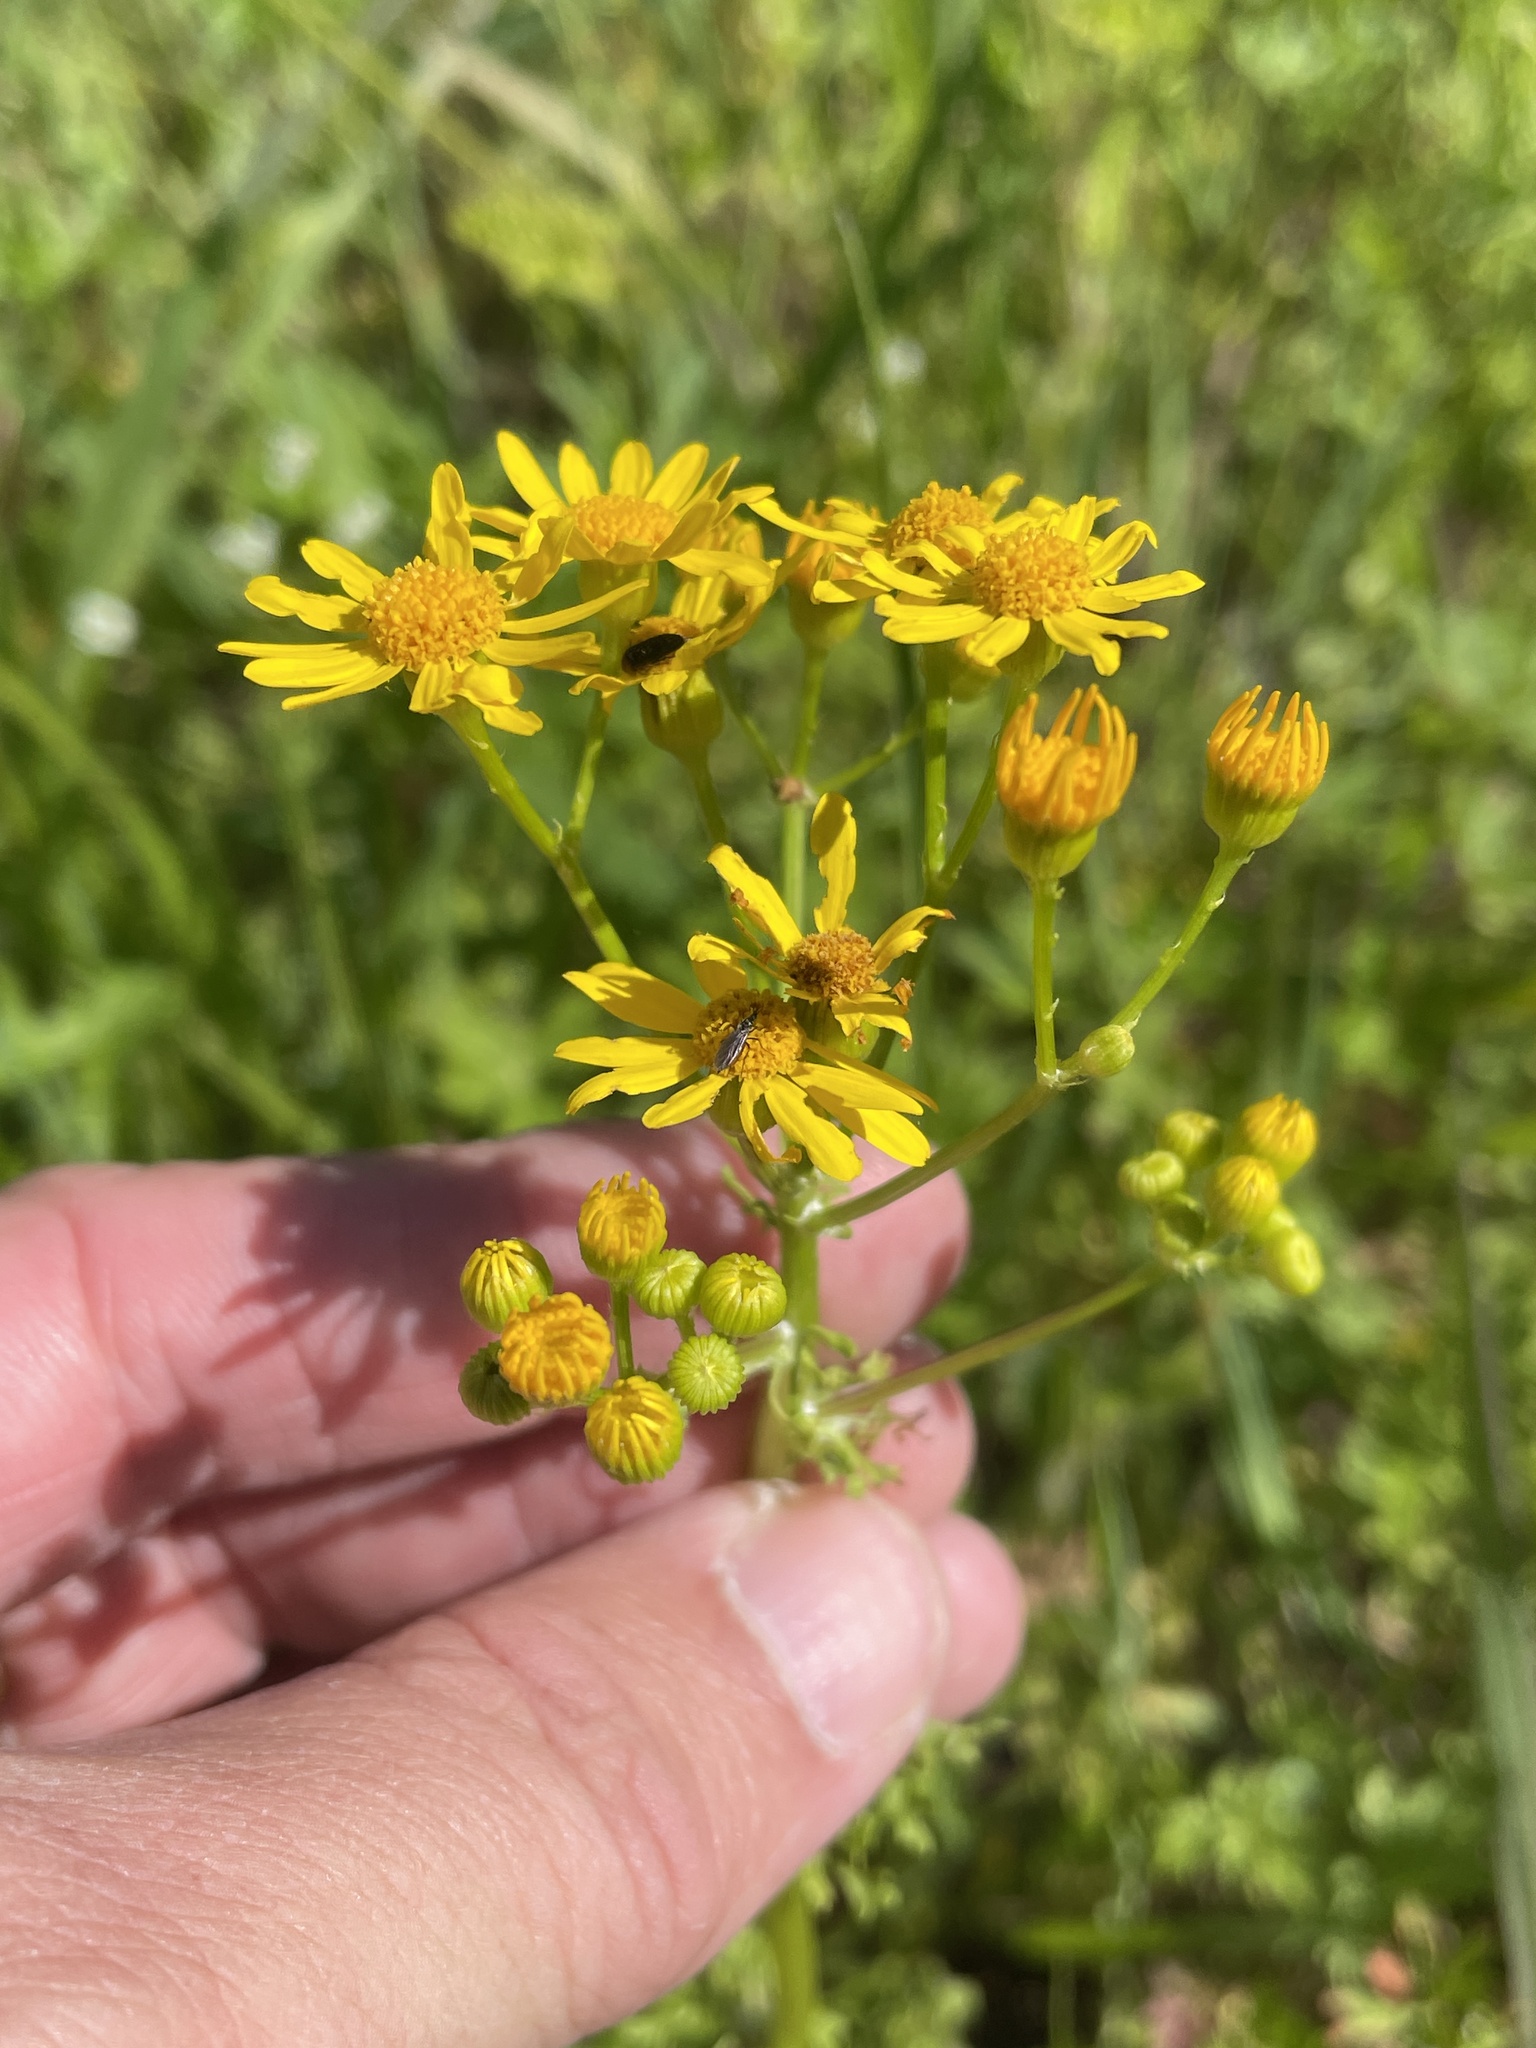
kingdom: Plantae
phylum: Tracheophyta
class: Magnoliopsida
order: Asterales
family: Asteraceae
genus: Packera
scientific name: Packera tampicana
